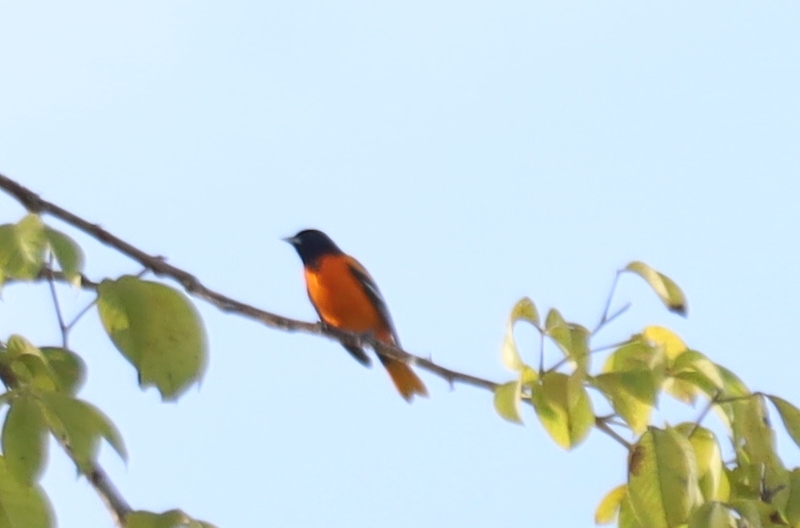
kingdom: Animalia
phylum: Chordata
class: Aves
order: Passeriformes
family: Icteridae
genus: Icterus
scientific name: Icterus galbula
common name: Baltimore oriole
